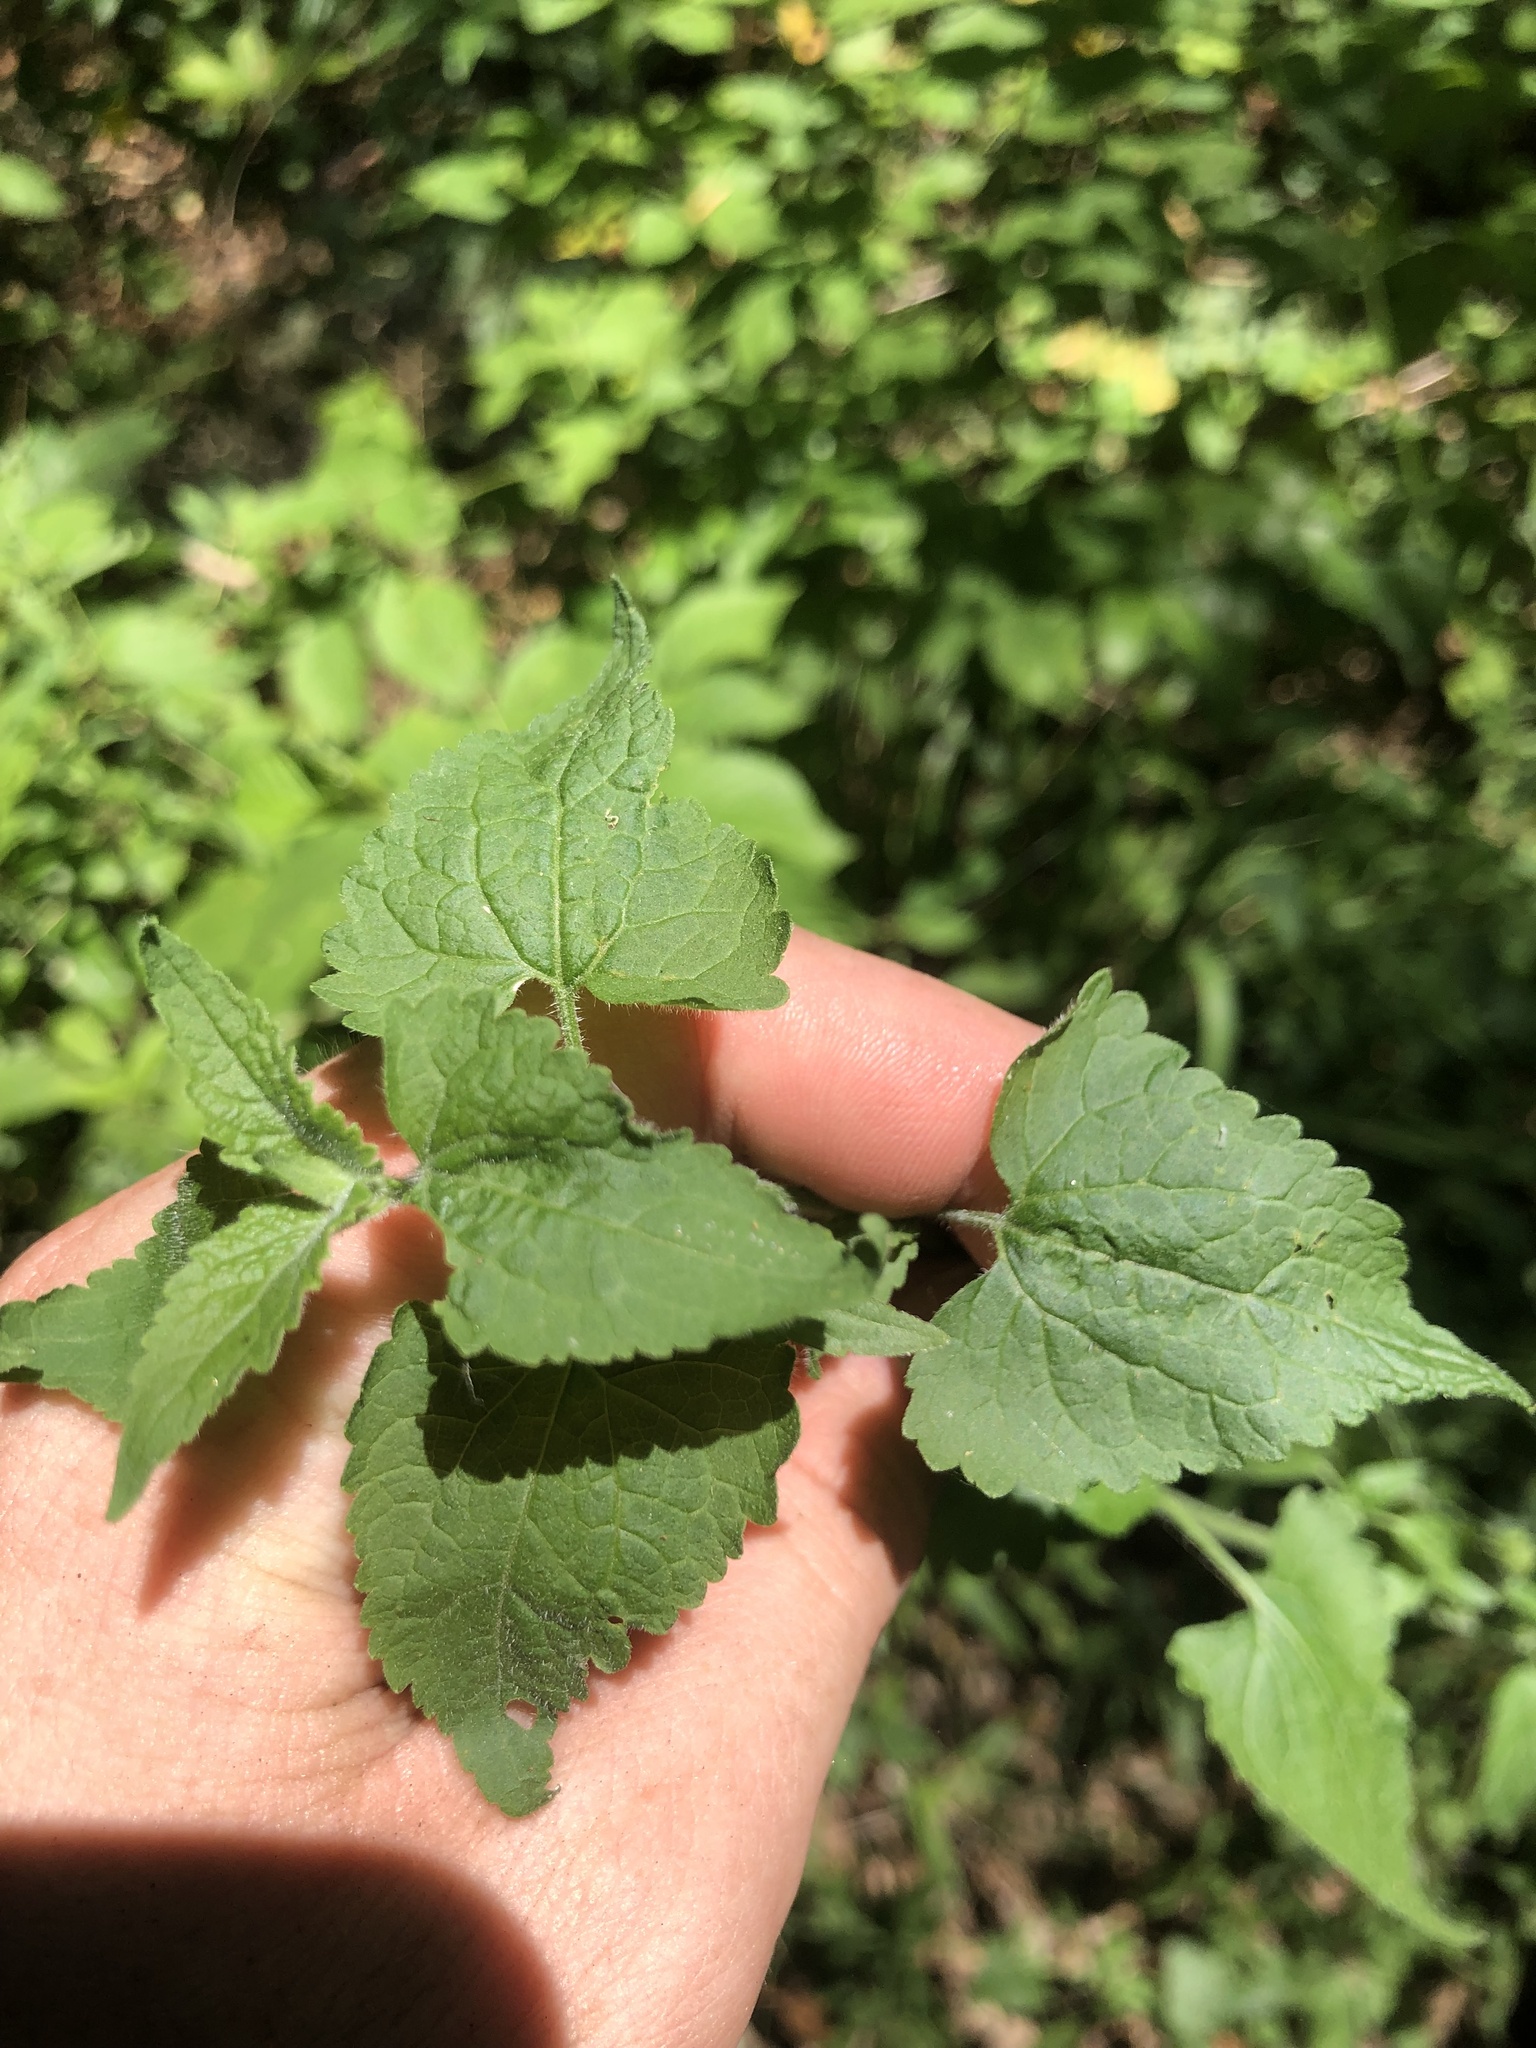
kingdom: Plantae
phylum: Tracheophyta
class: Magnoliopsida
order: Asterales
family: Asteraceae
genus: Fleischmannia
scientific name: Fleischmannia incarnata
